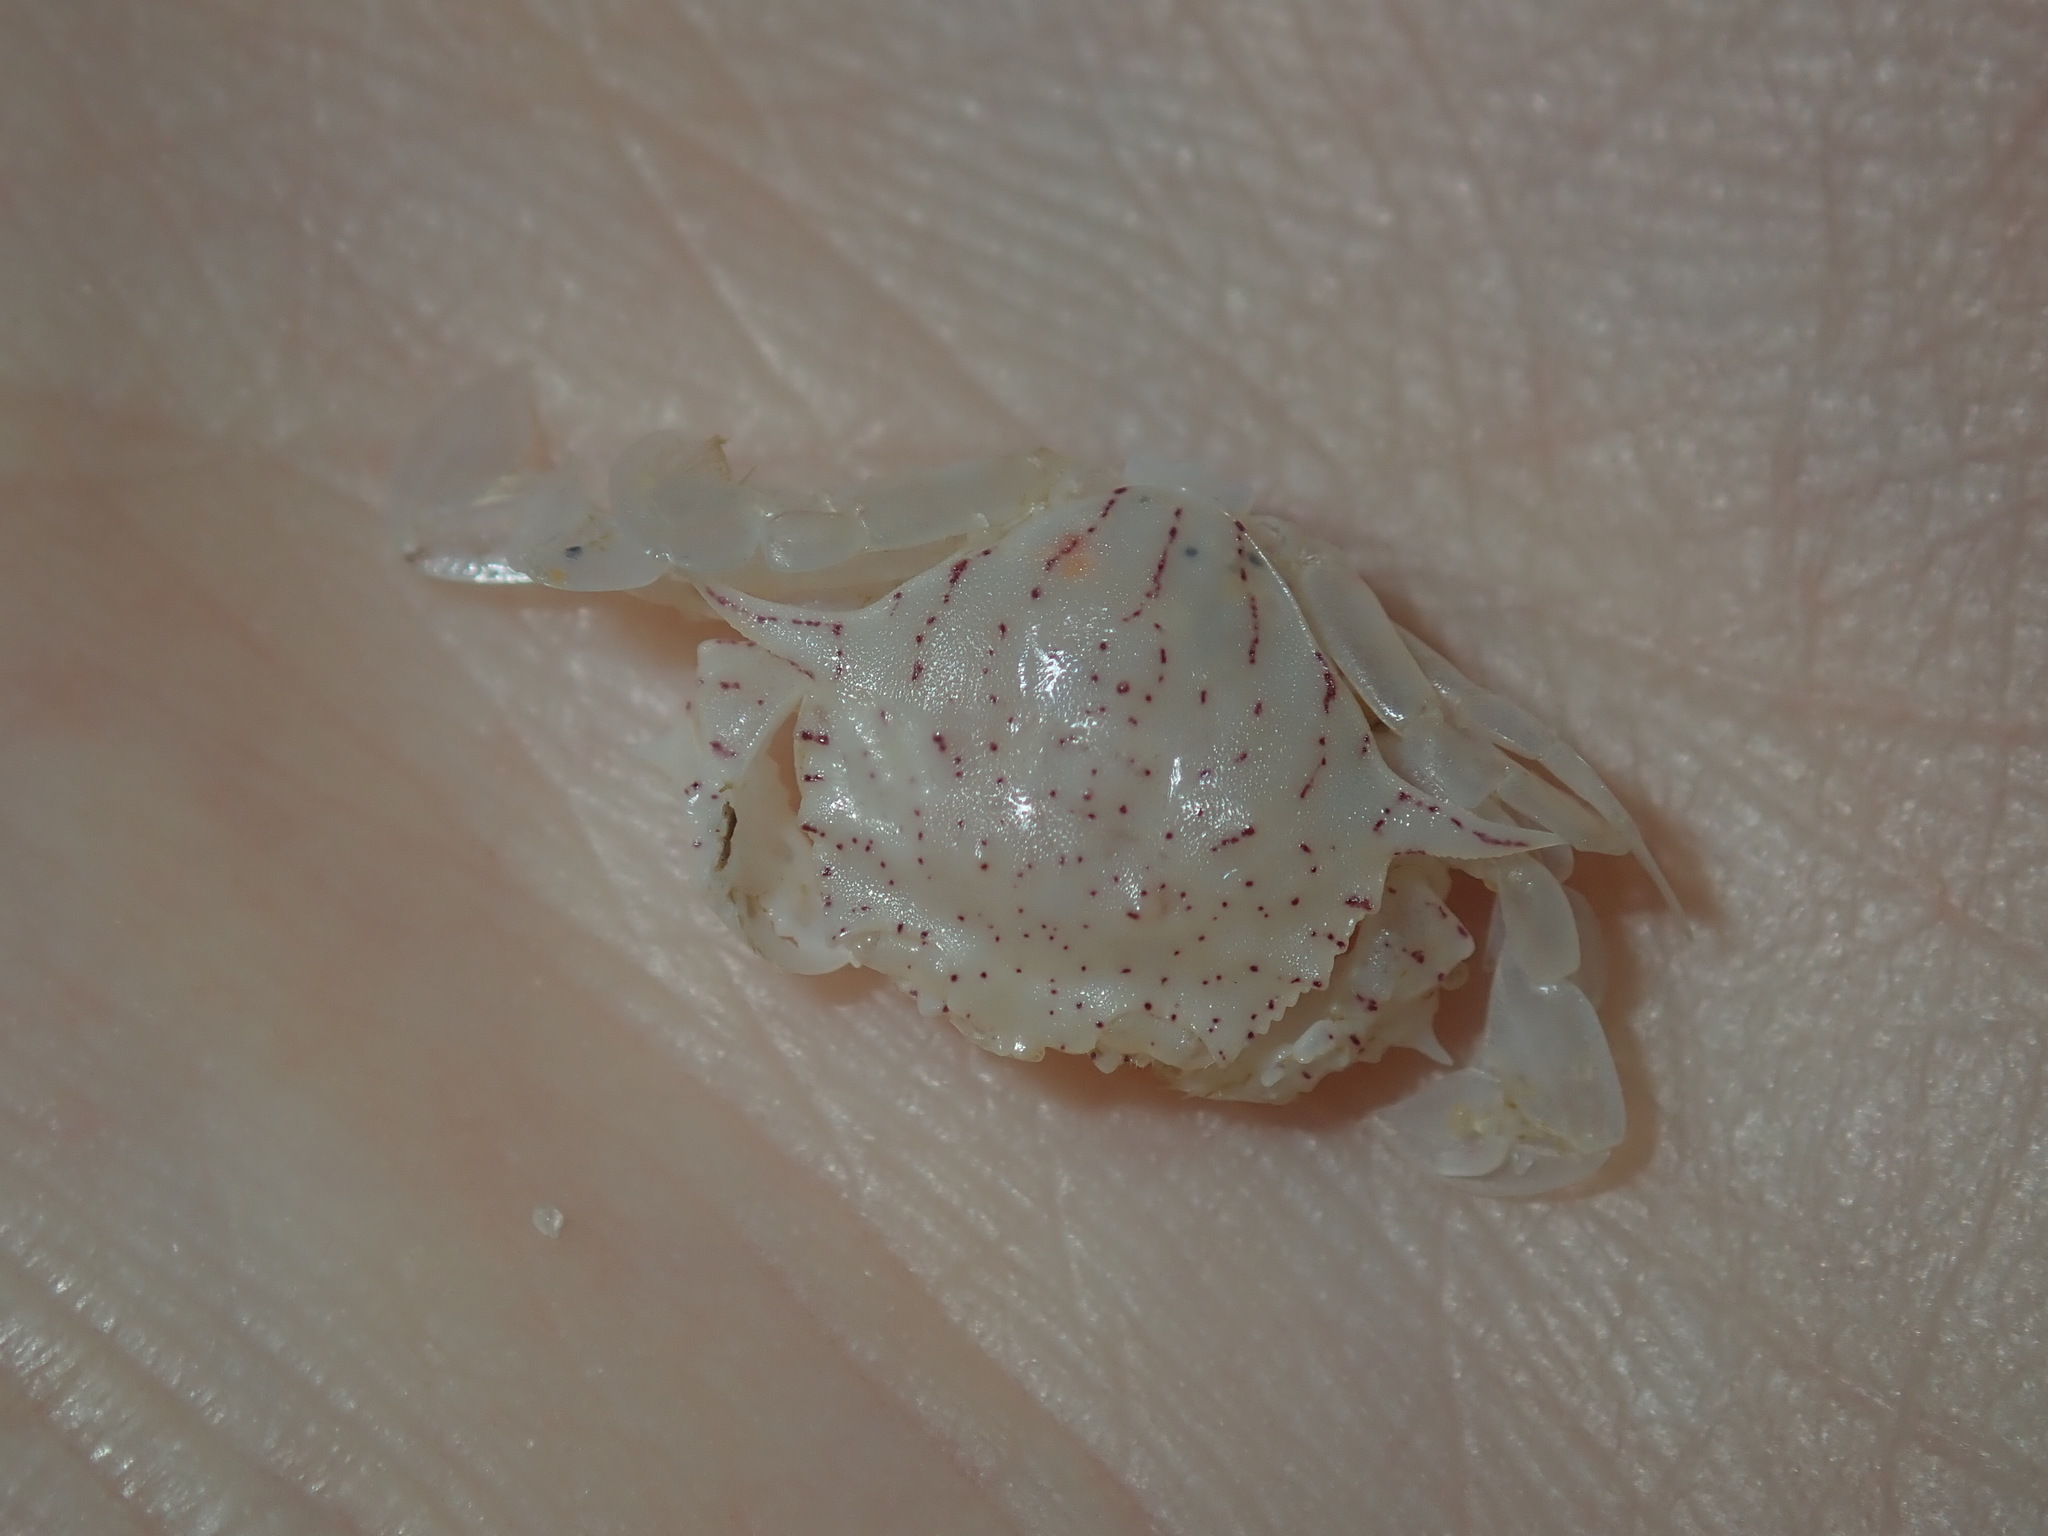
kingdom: Animalia
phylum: Arthropoda
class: Malacostraca
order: Decapoda
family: Matutidae
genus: Matuta
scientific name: Matuta planipes
